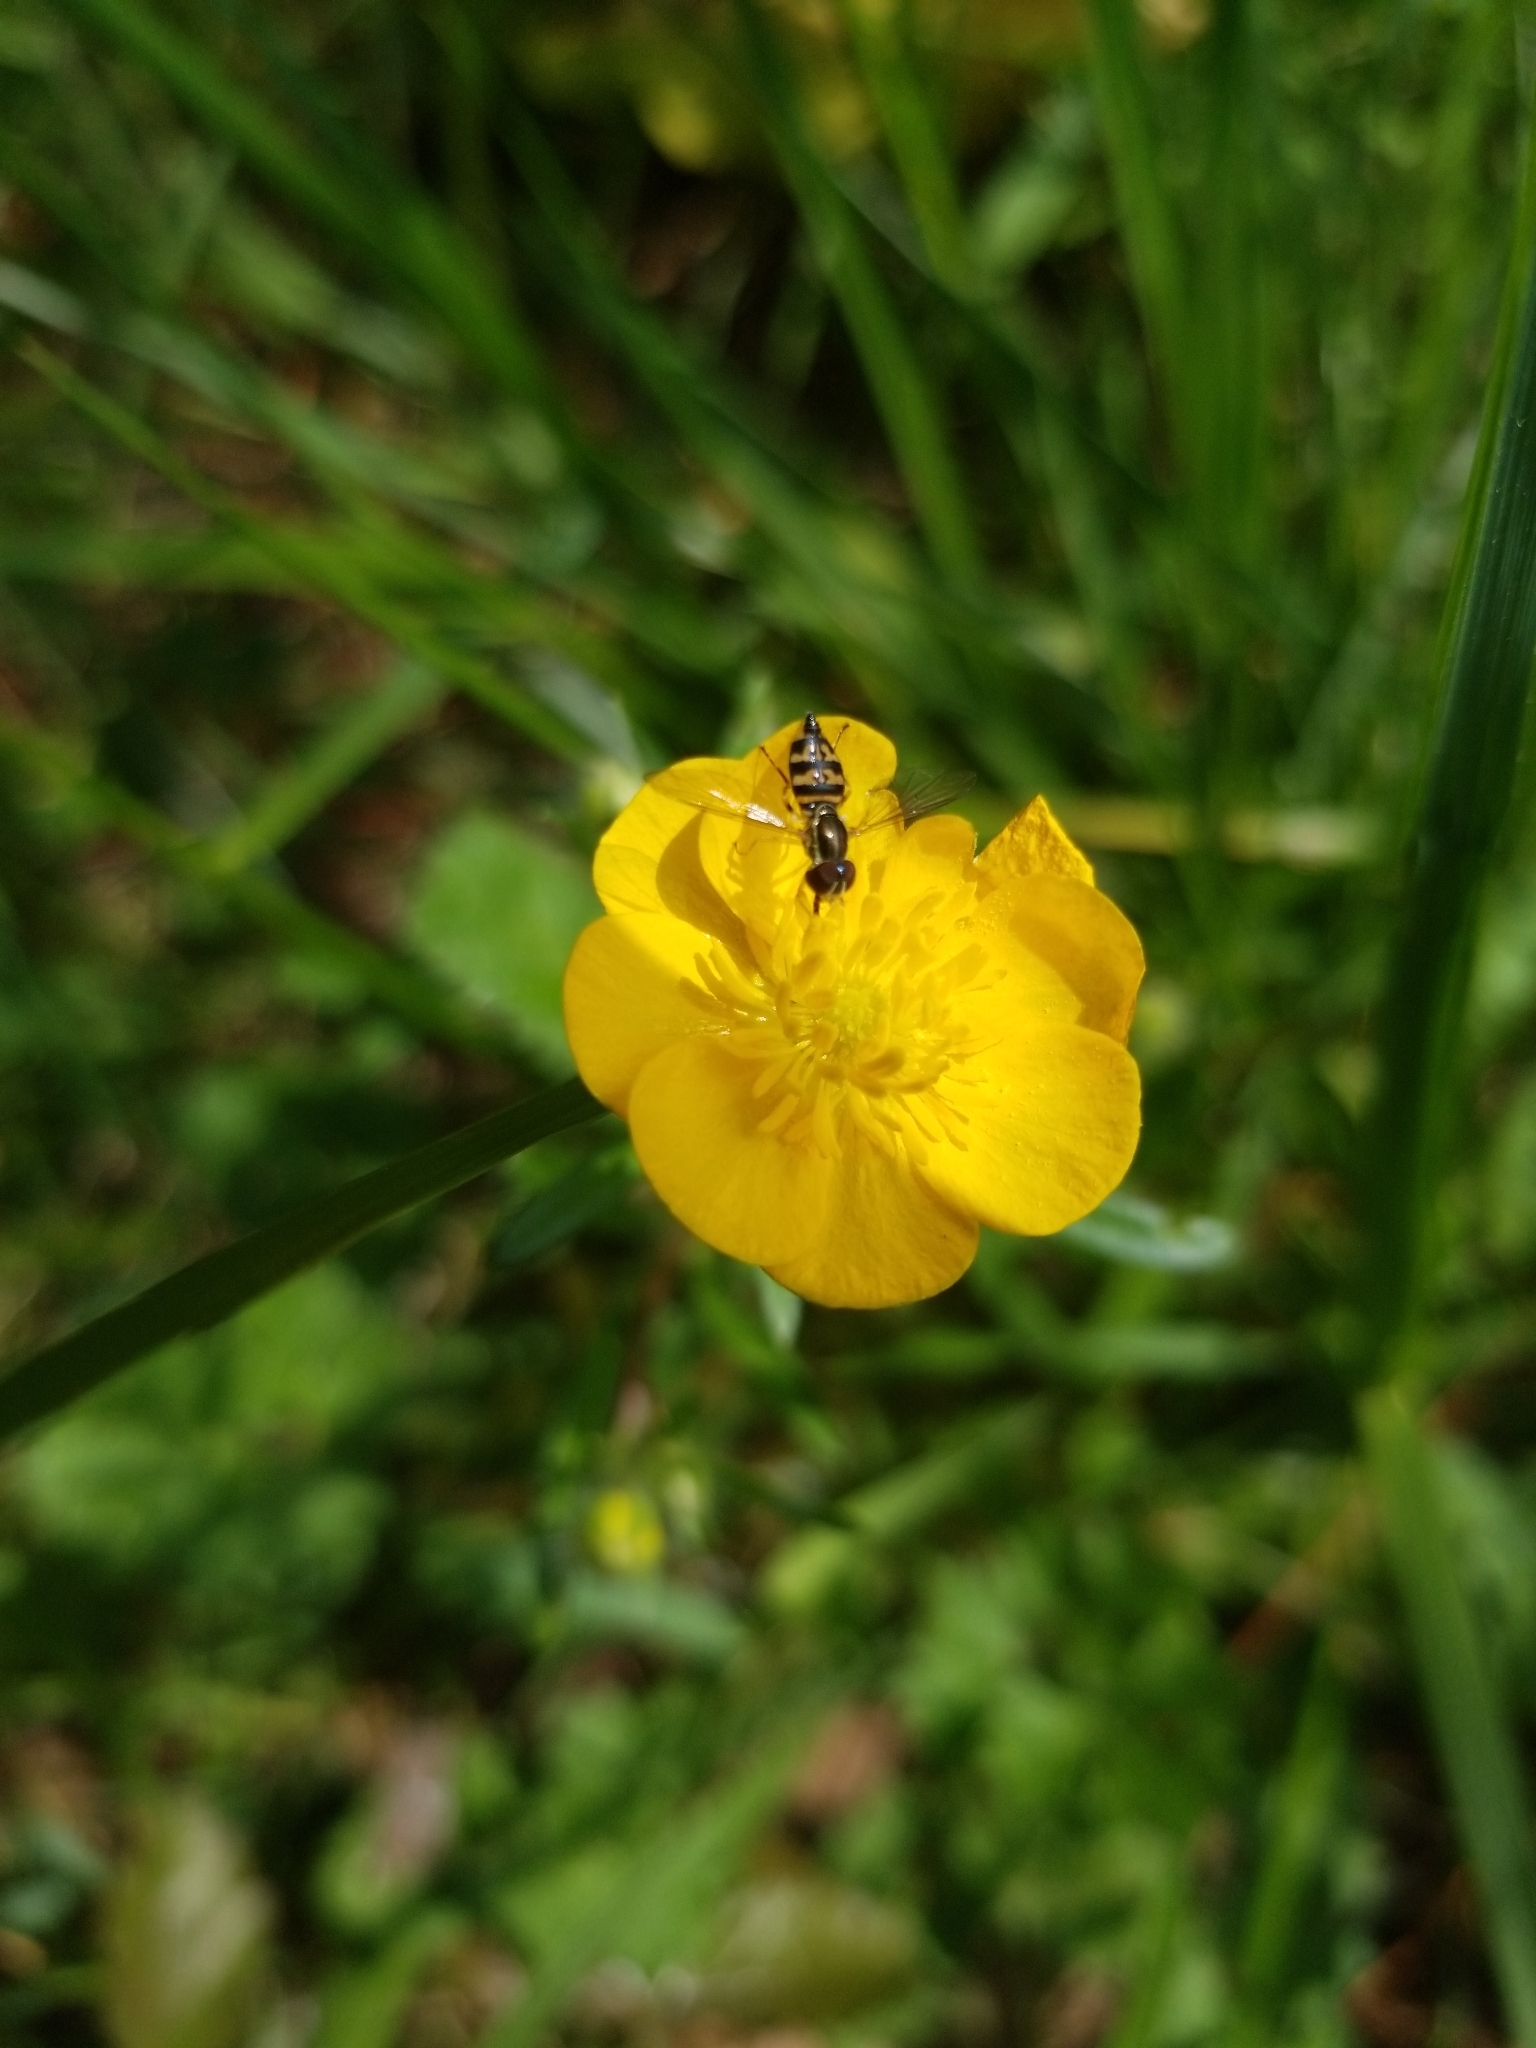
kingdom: Animalia
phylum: Arthropoda
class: Insecta
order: Diptera
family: Syrphidae
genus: Toxomerus
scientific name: Toxomerus geminatus
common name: Eastern calligrapher
